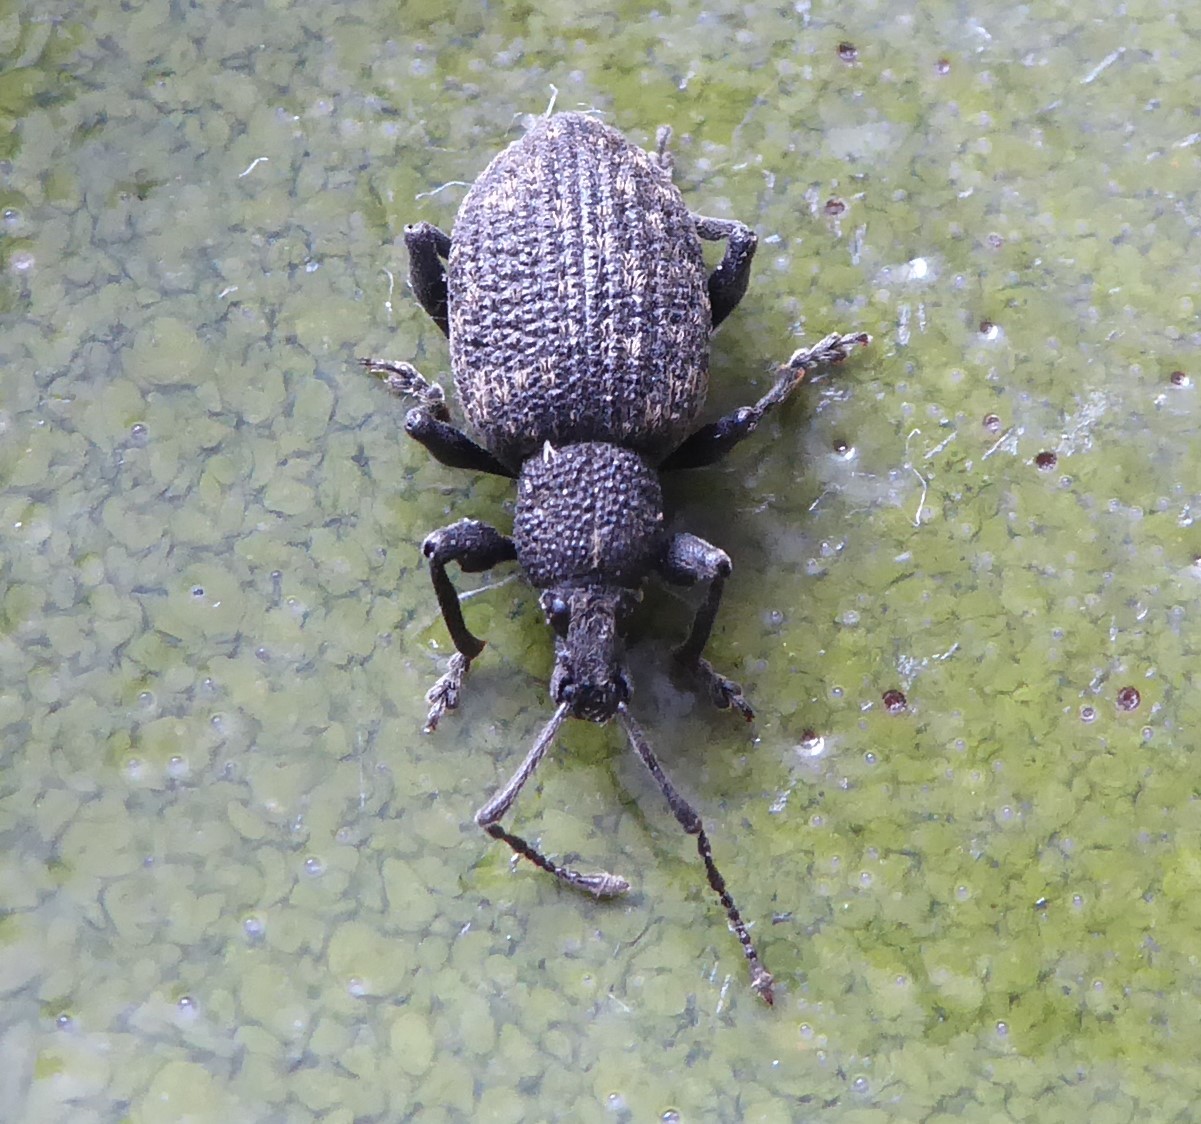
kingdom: Animalia
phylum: Arthropoda
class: Insecta
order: Coleoptera
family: Curculionidae
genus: Otiorhynchus
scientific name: Otiorhynchus sulcatus
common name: Black vine weevil
